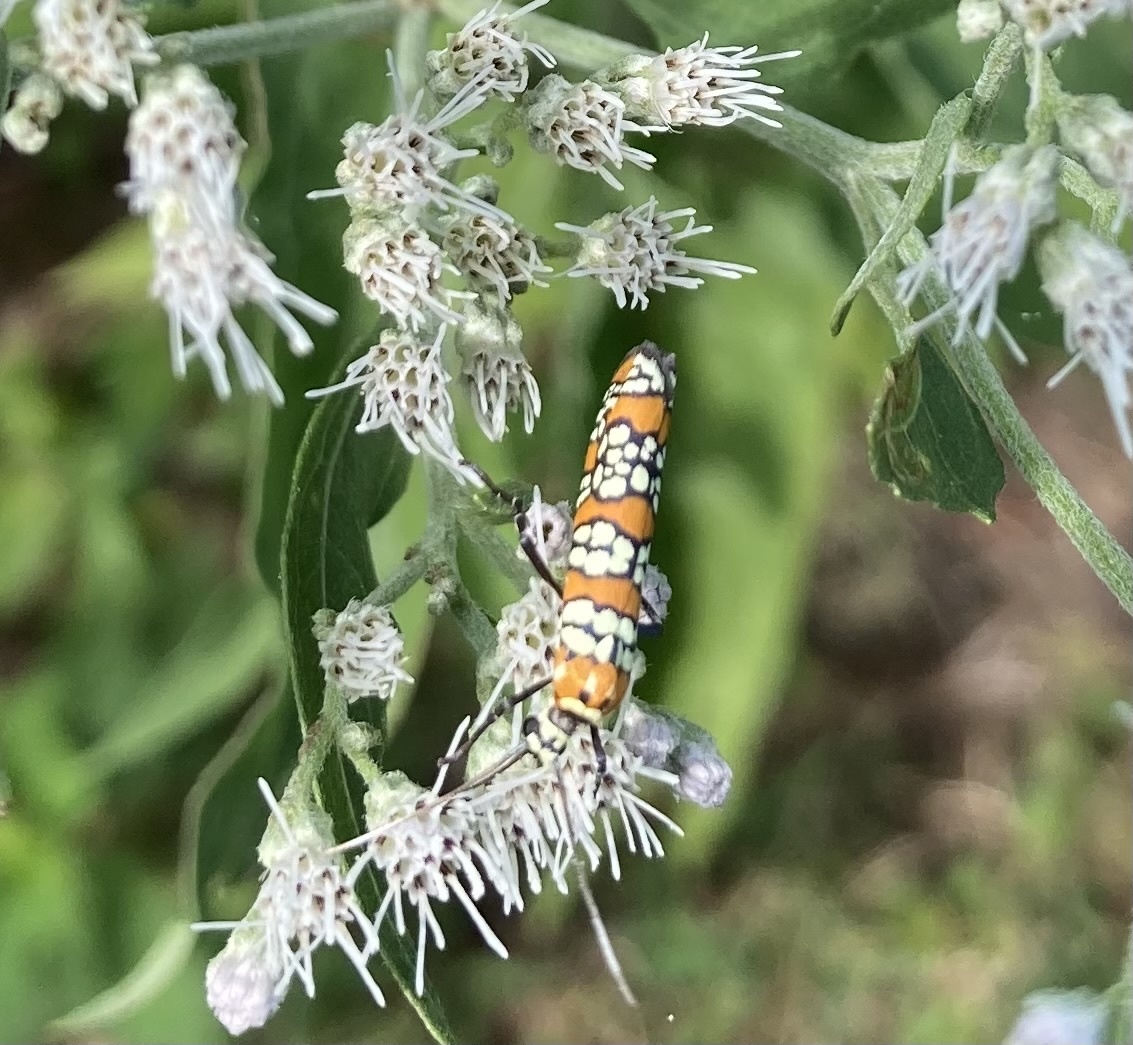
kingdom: Animalia
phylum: Arthropoda
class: Insecta
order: Lepidoptera
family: Attevidae
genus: Atteva
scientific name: Atteva punctella
